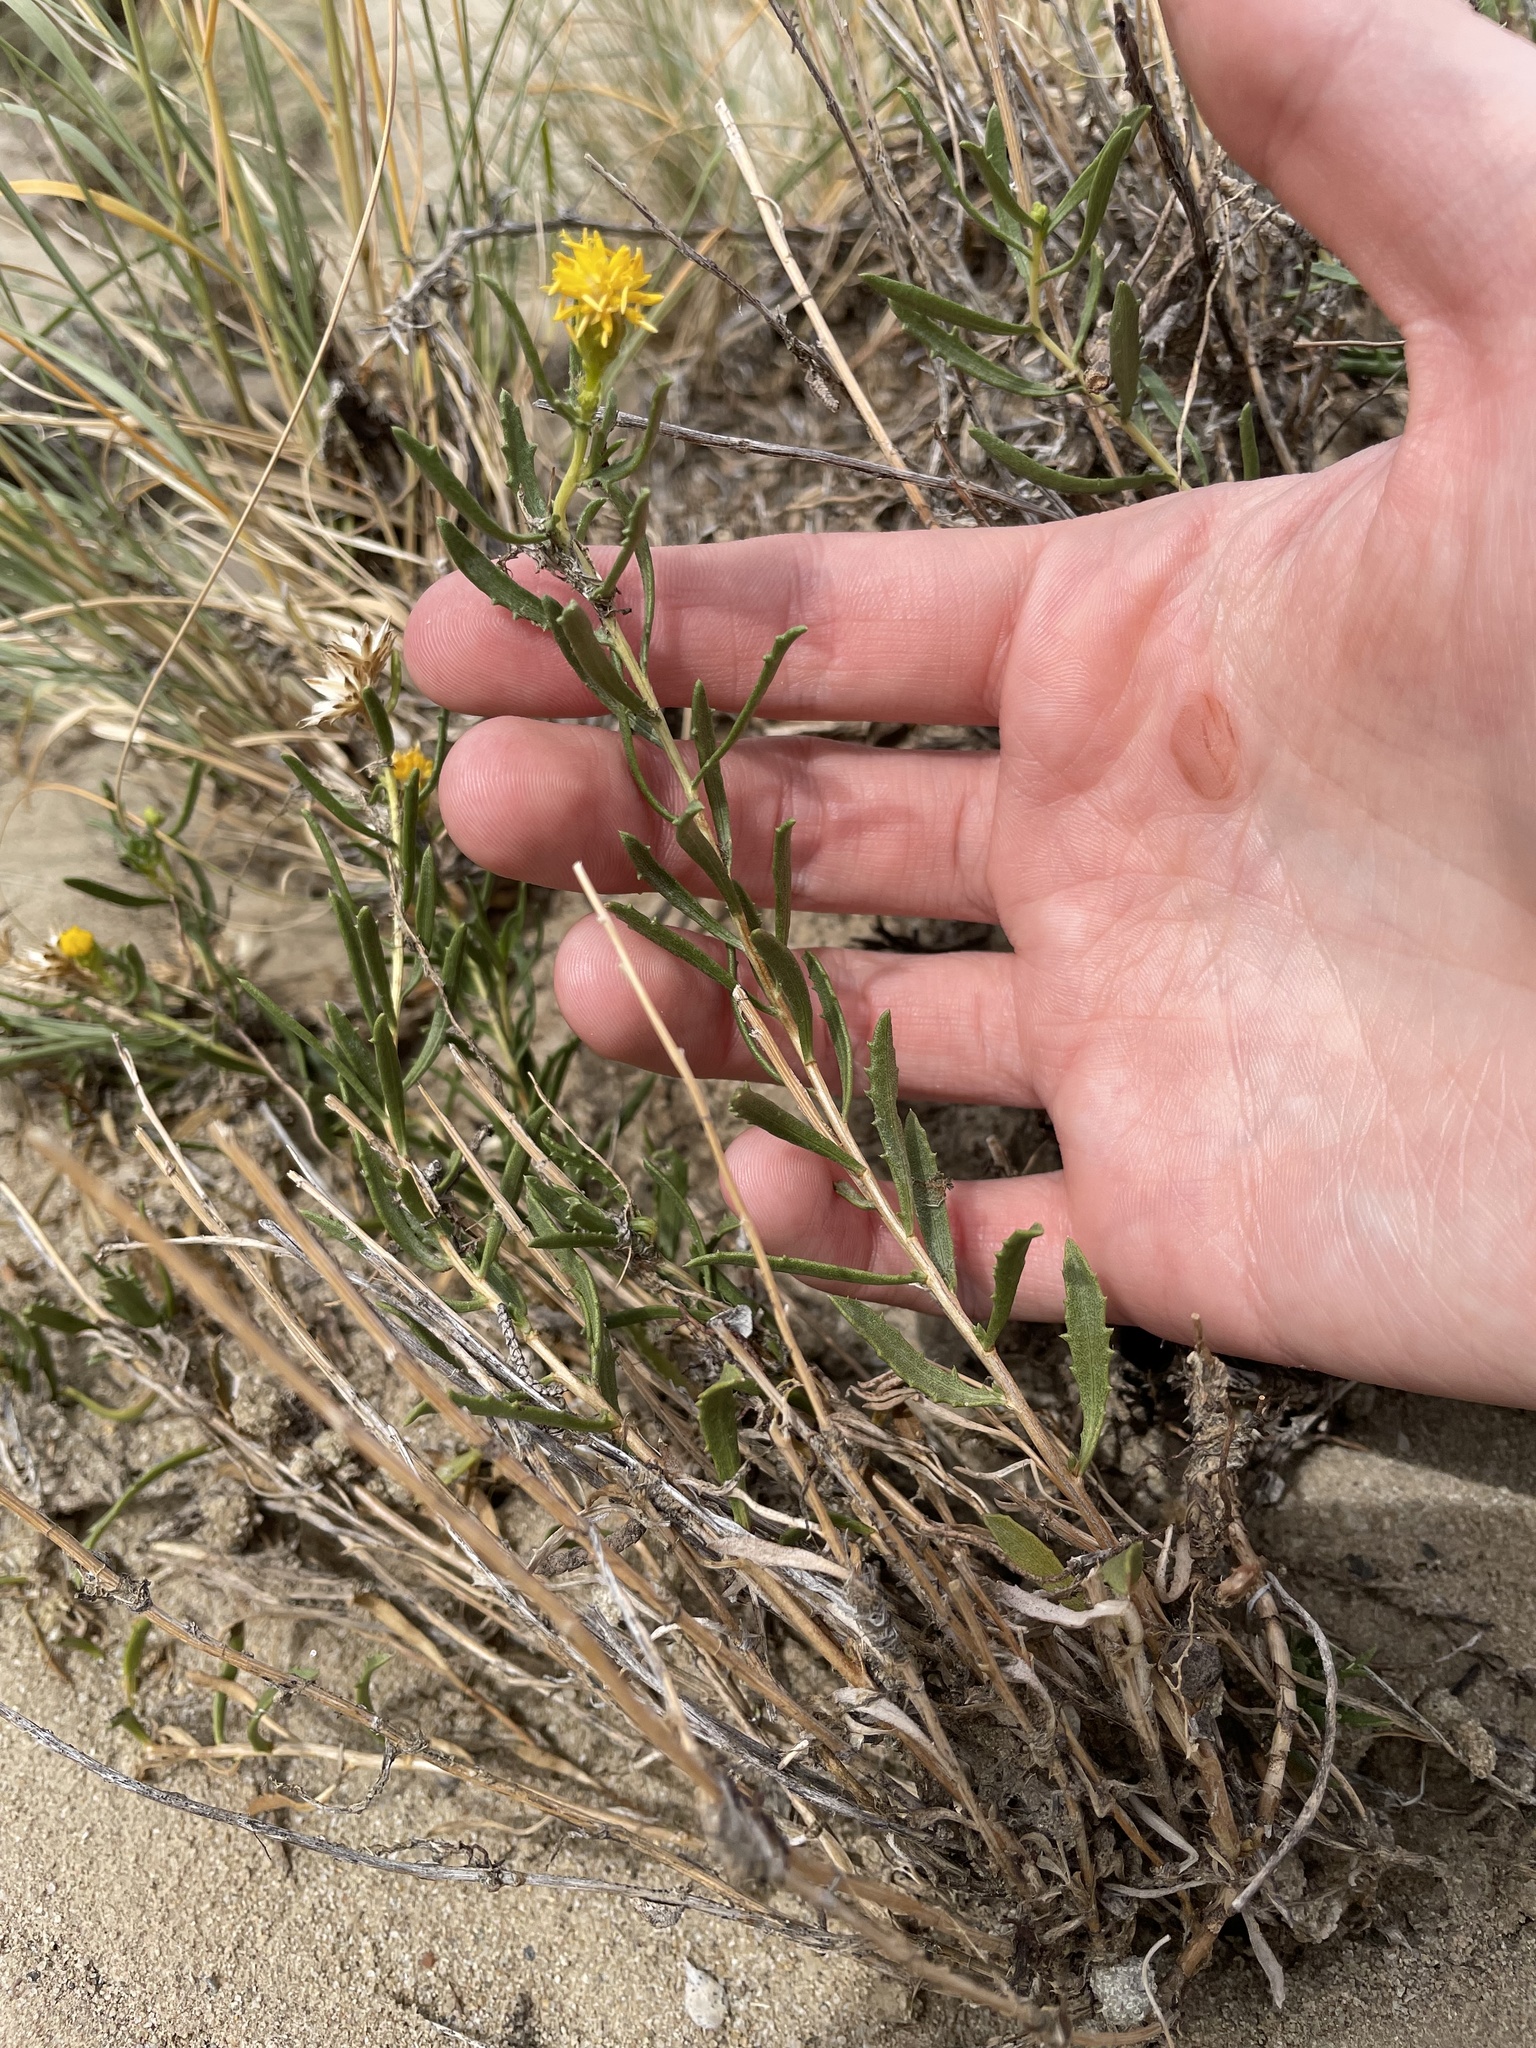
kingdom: Plantae
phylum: Tracheophyta
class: Magnoliopsida
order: Asterales
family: Asteraceae
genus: Xanthisma
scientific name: Xanthisma grindelioides
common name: Goldenweed
